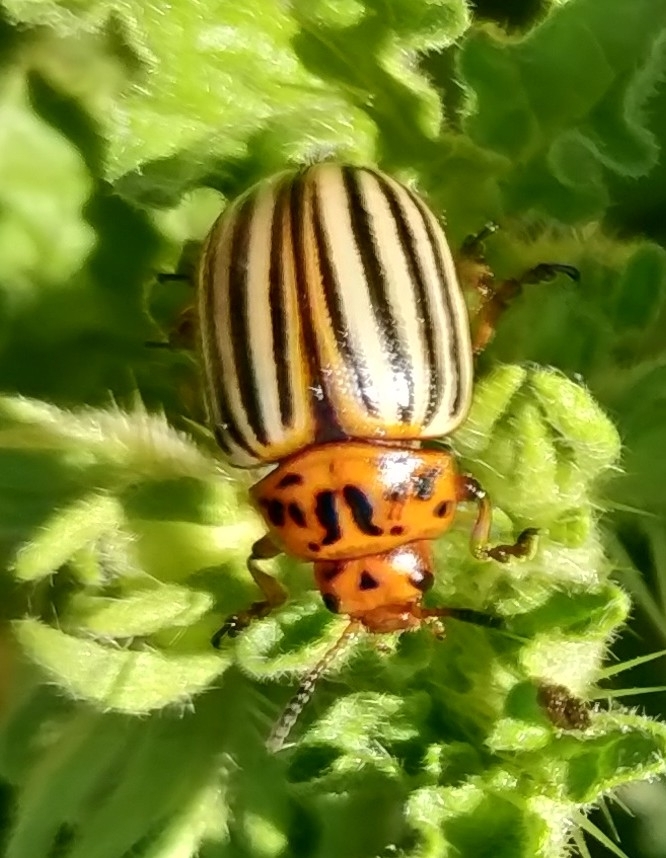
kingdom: Animalia
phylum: Arthropoda
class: Insecta
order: Coleoptera
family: Chrysomelidae
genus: Leptinotarsa
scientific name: Leptinotarsa decemlineata
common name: Colorado potato beetle
